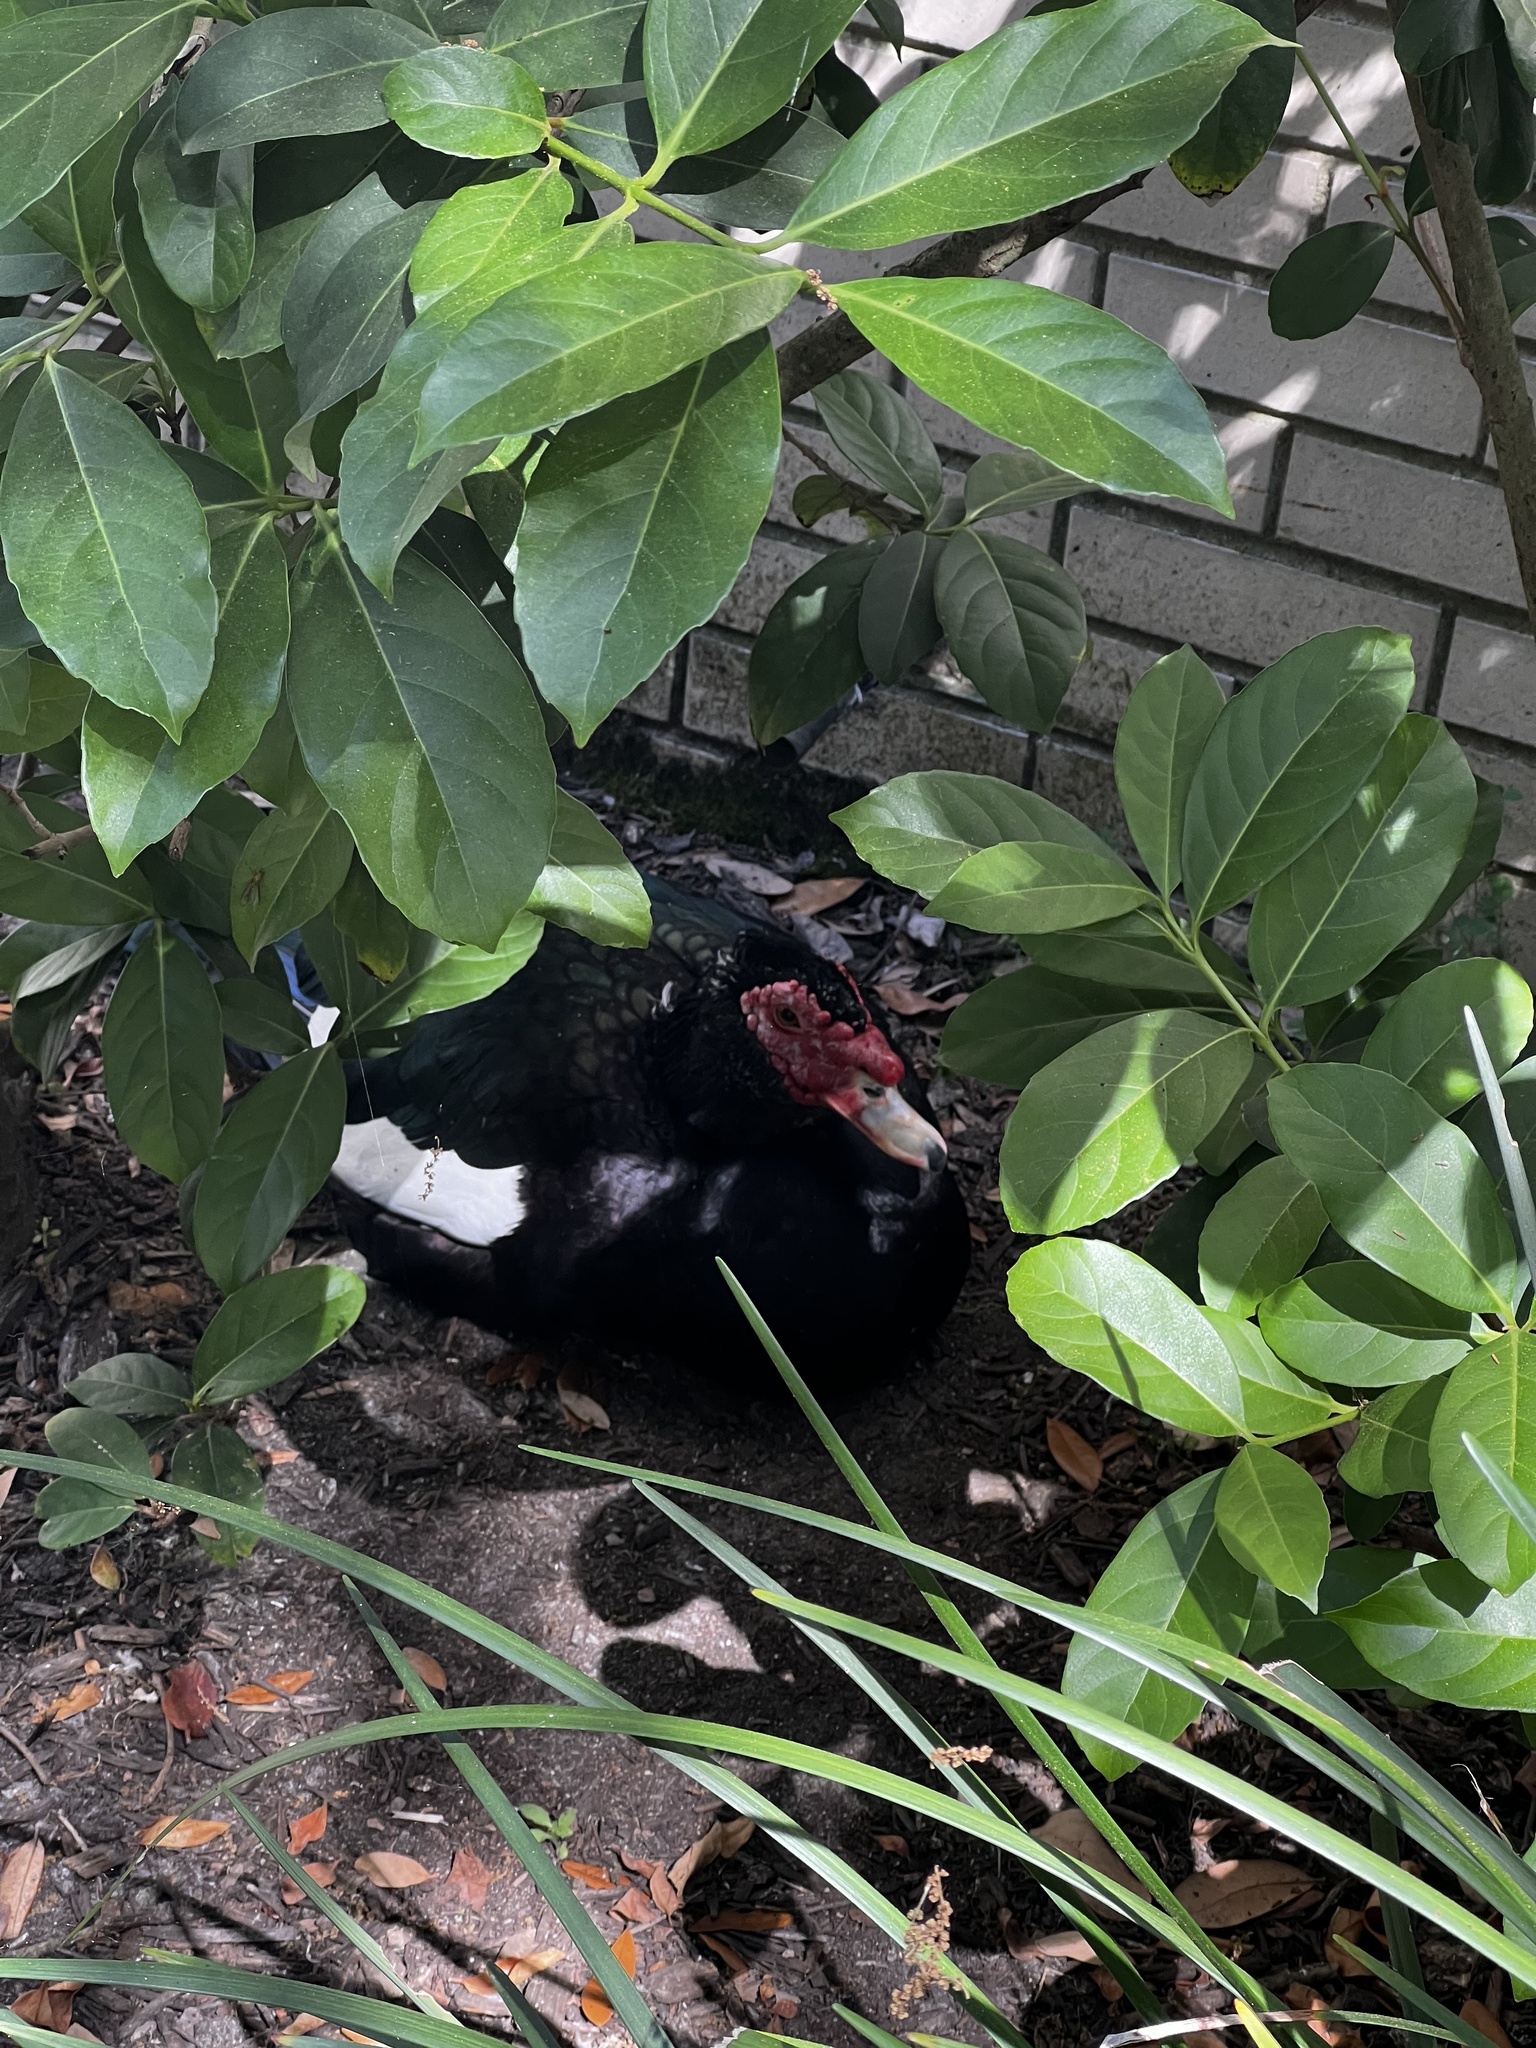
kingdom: Animalia
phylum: Chordata
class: Aves
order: Anseriformes
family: Anatidae
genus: Cairina
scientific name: Cairina moschata
